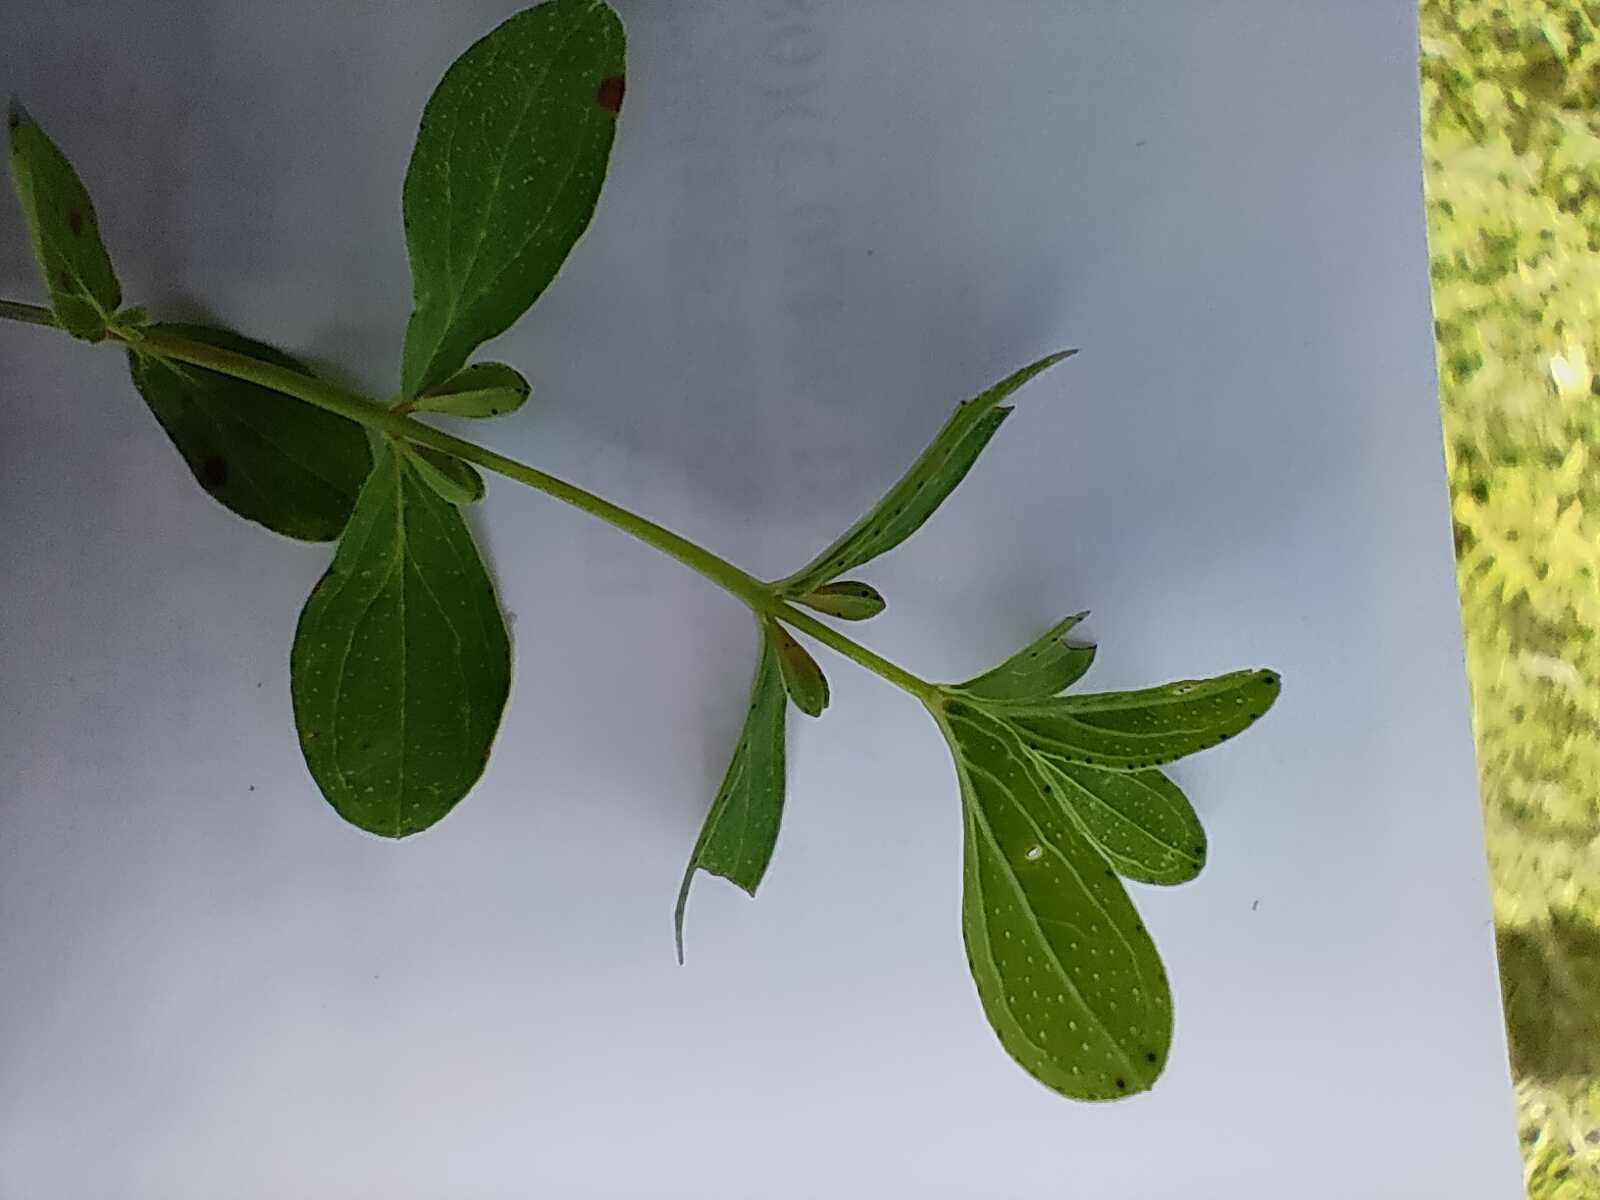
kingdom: Plantae
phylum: Tracheophyta
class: Magnoliopsida
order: Malpighiales
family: Hypericaceae
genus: Hypericum
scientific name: Hypericum perforatum
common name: Common st. johnswort
